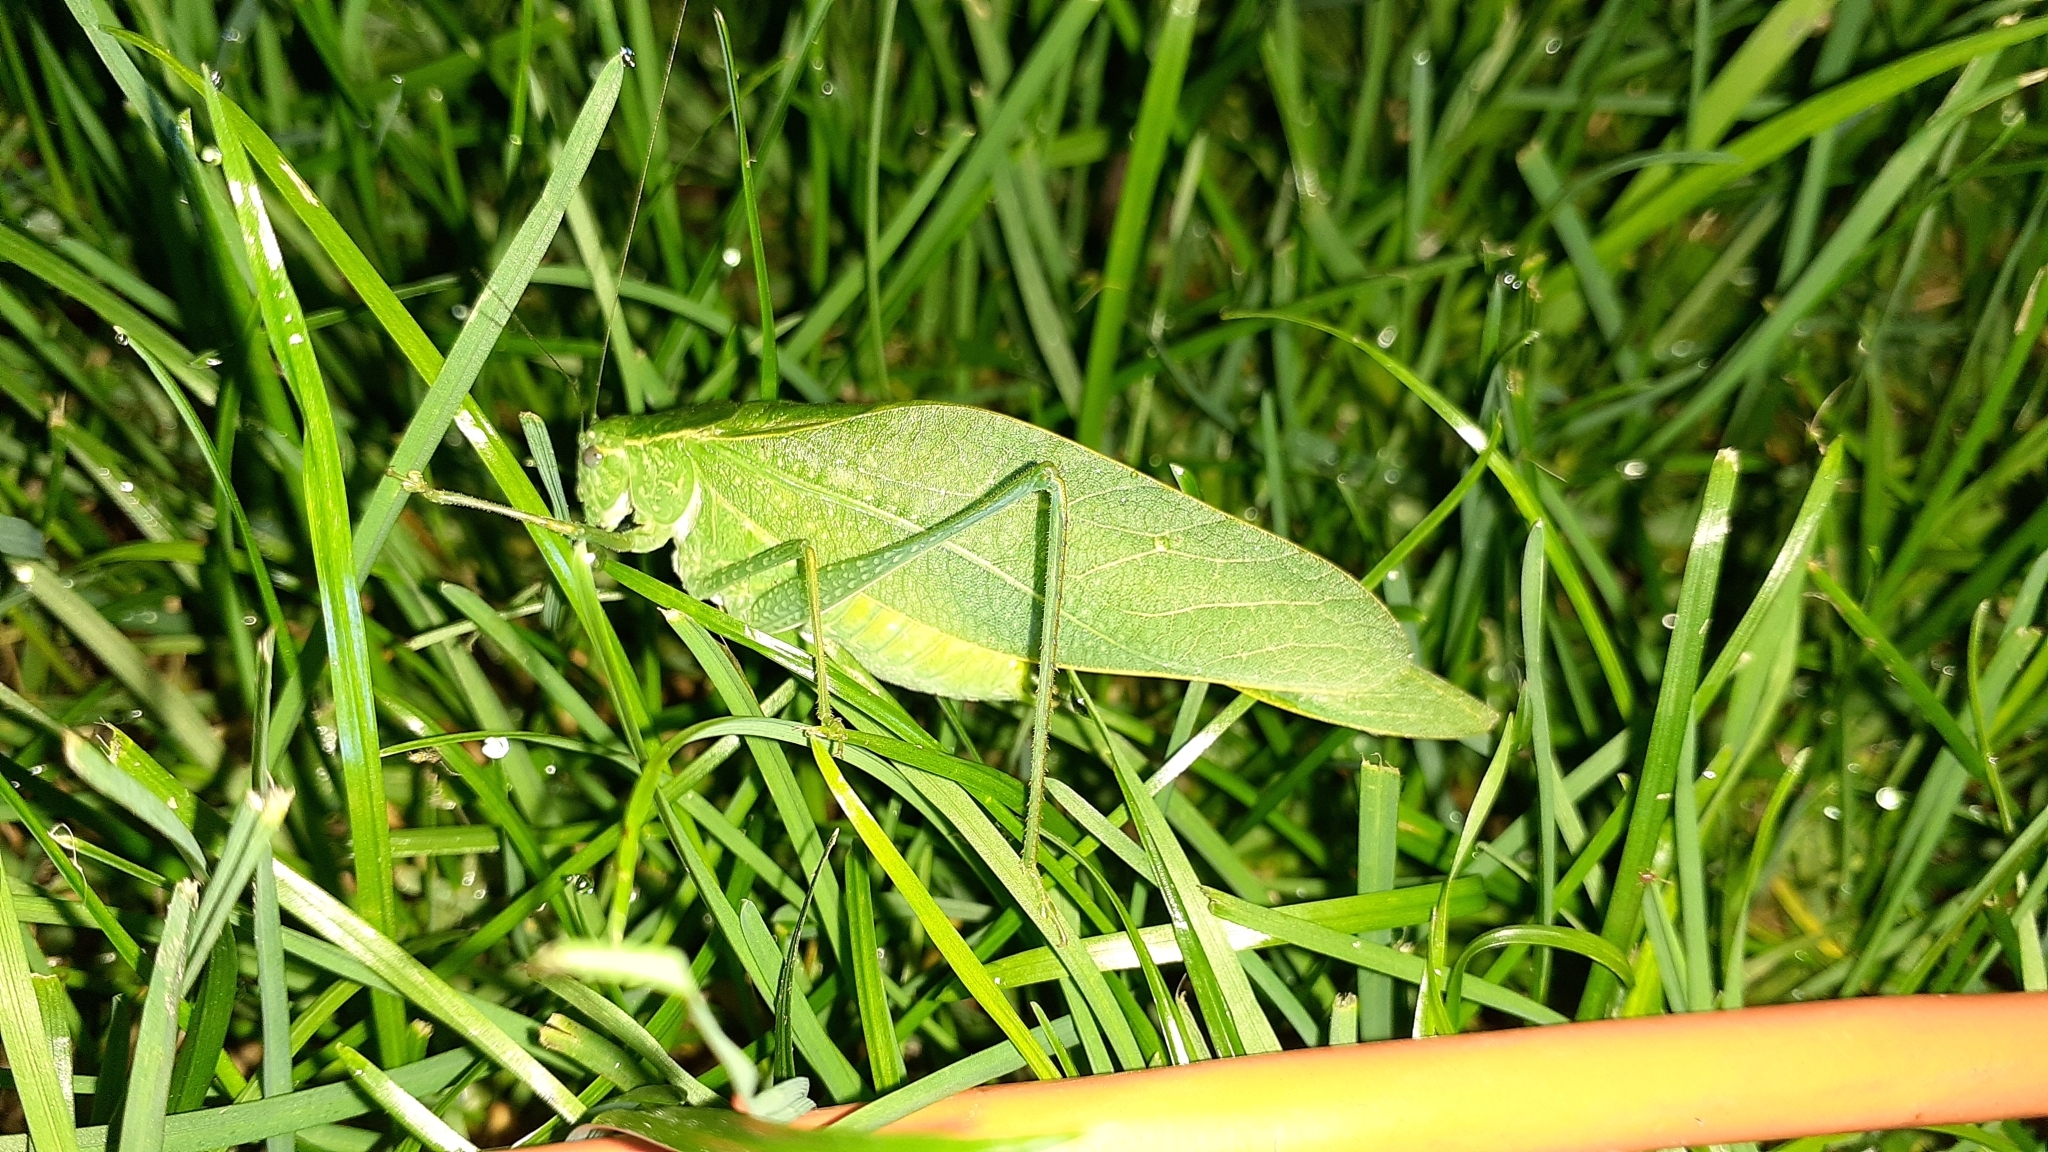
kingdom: Animalia
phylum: Arthropoda
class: Insecta
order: Orthoptera
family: Tettigoniidae
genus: Microcentrum
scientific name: Microcentrum rhombifolium
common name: Broad-winged katydid
